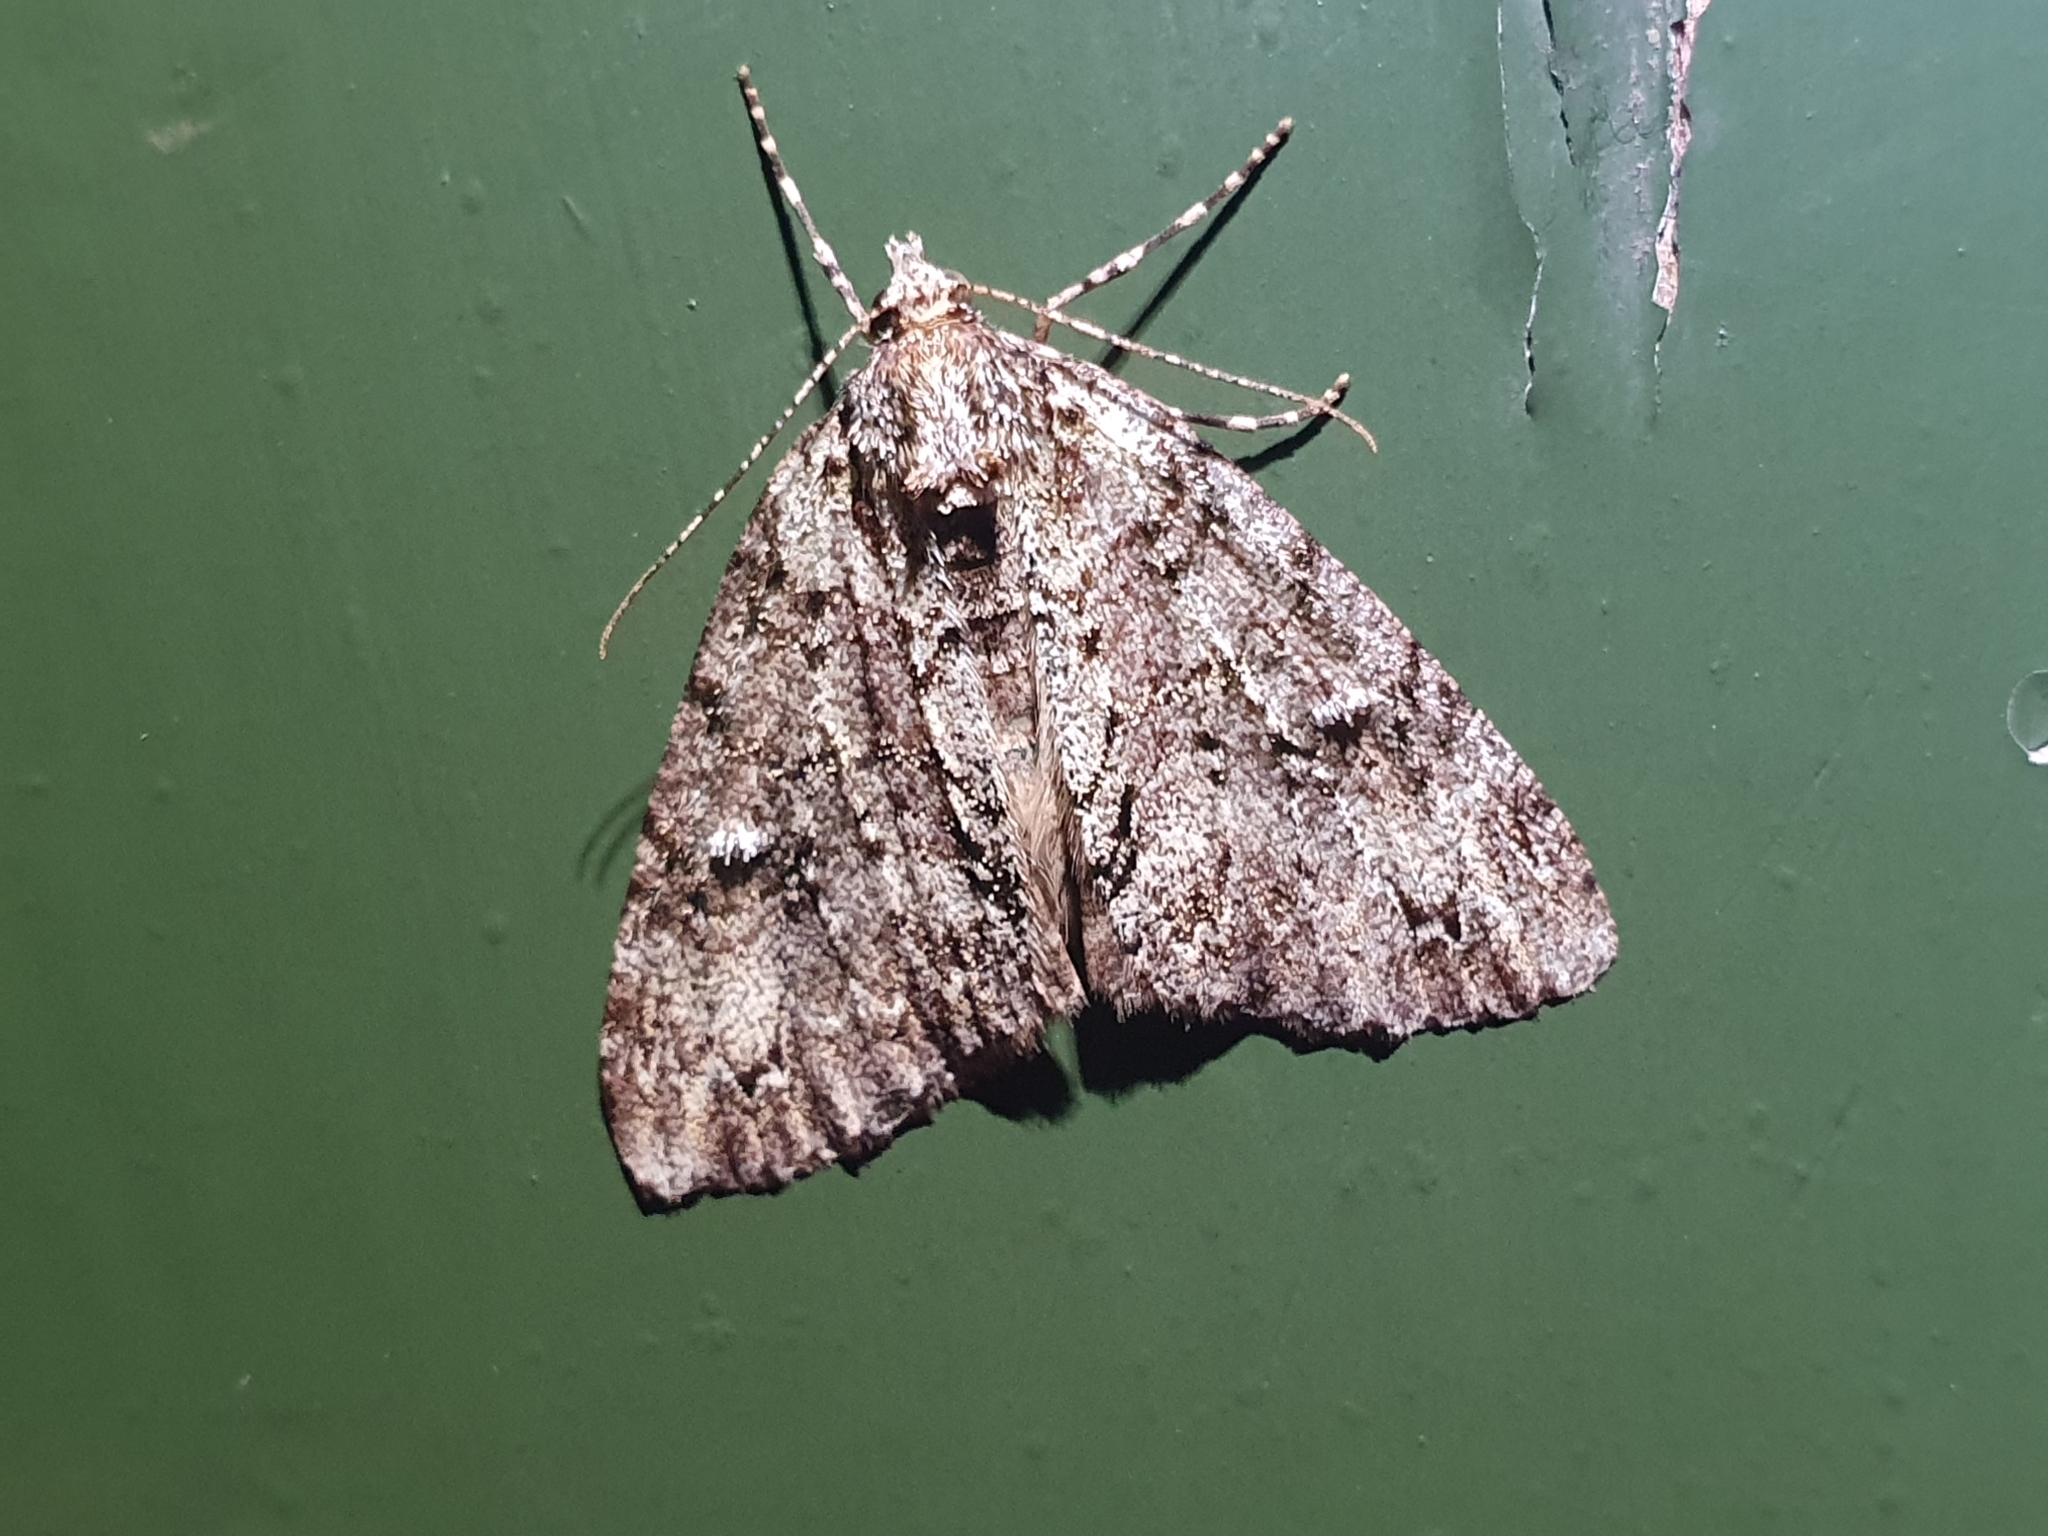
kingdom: Animalia
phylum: Arthropoda
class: Insecta
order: Lepidoptera
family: Geometridae
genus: Pseudocoremia
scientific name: Pseudocoremia suavis
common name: Common forest looper
